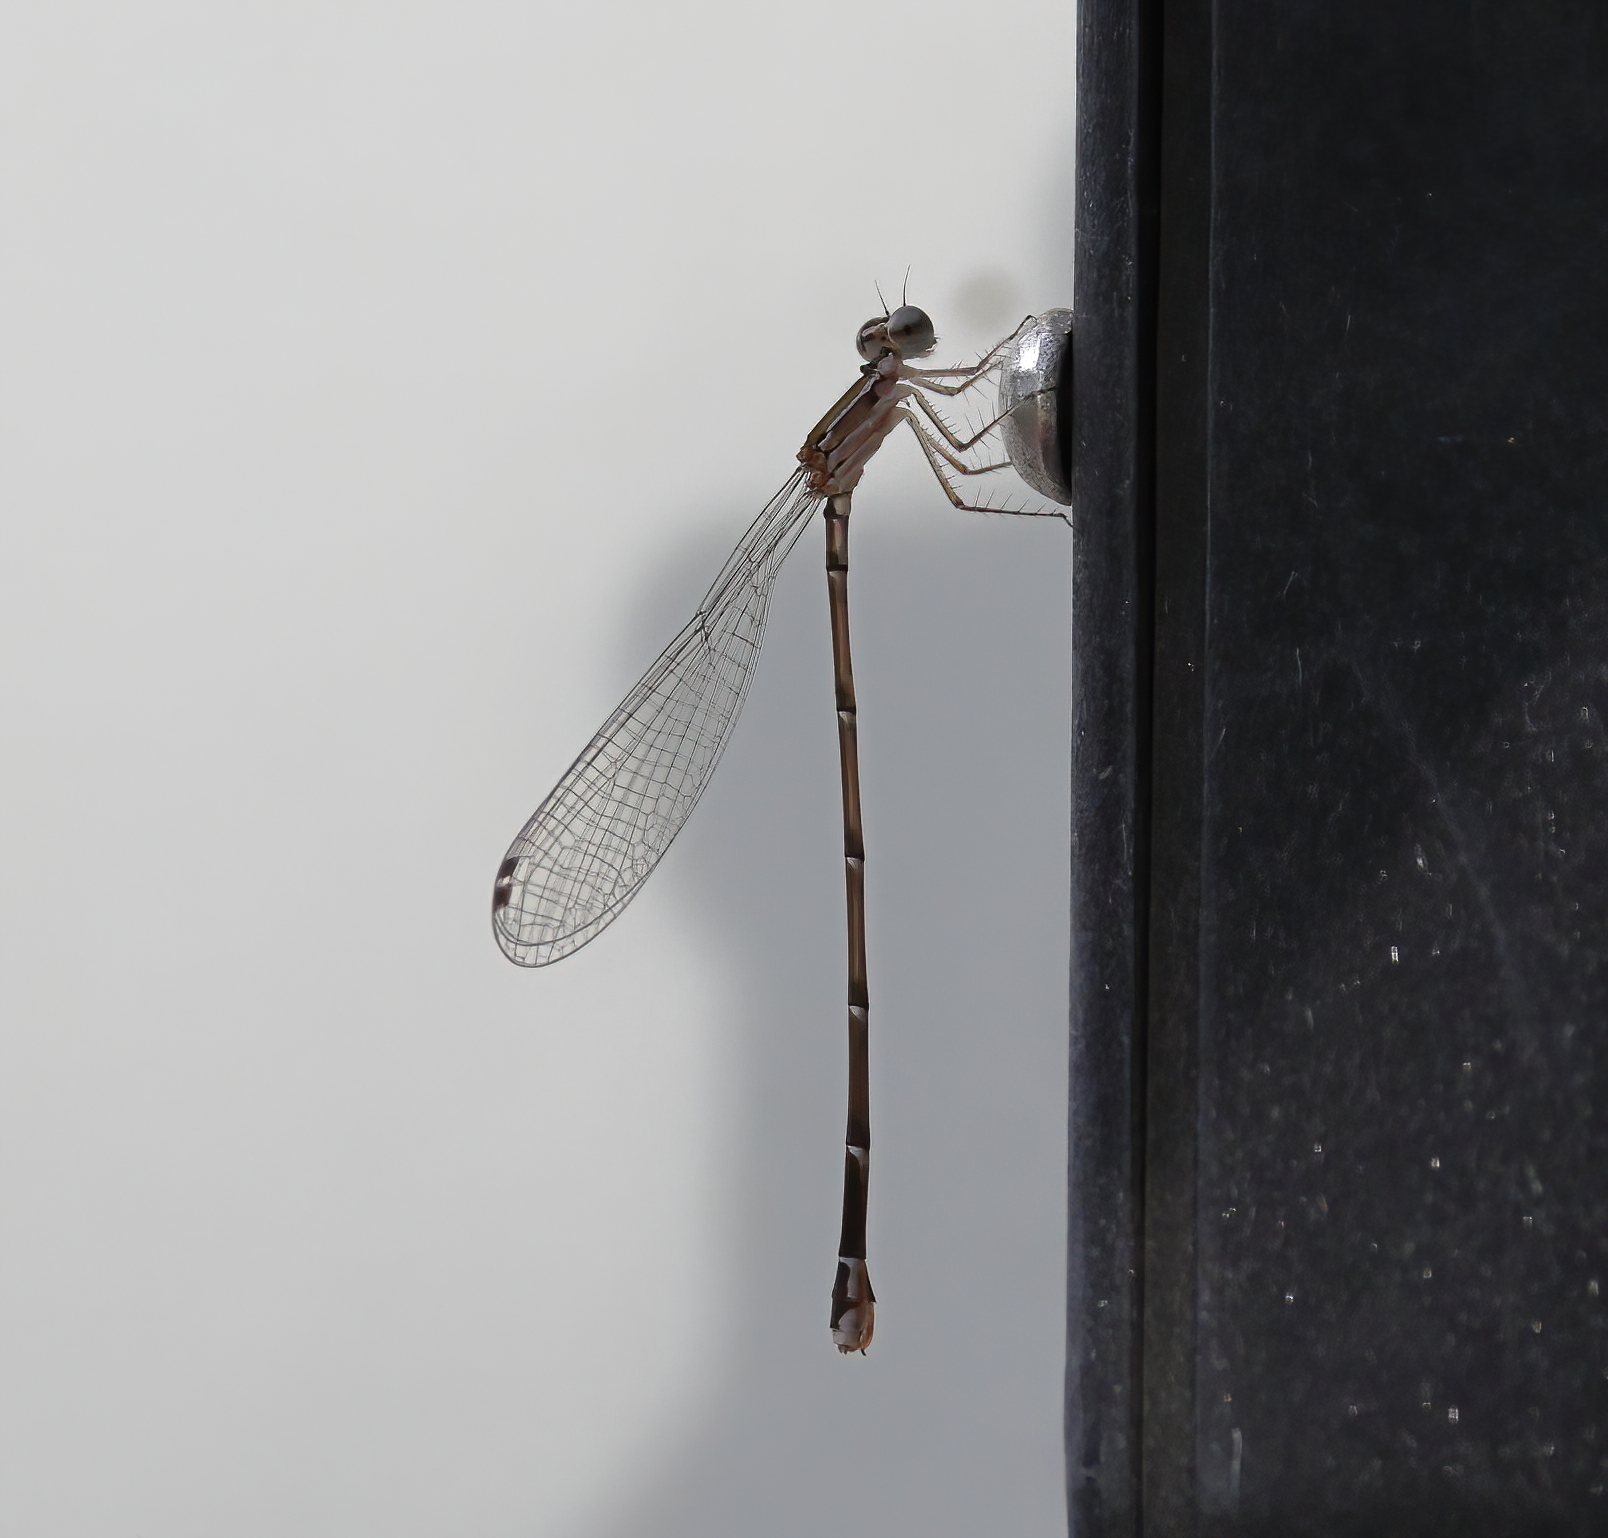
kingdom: Animalia
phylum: Arthropoda
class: Insecta
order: Odonata
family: Coenagrionidae
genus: Nehalennia
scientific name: Nehalennia pallidula
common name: Everglades sprite
